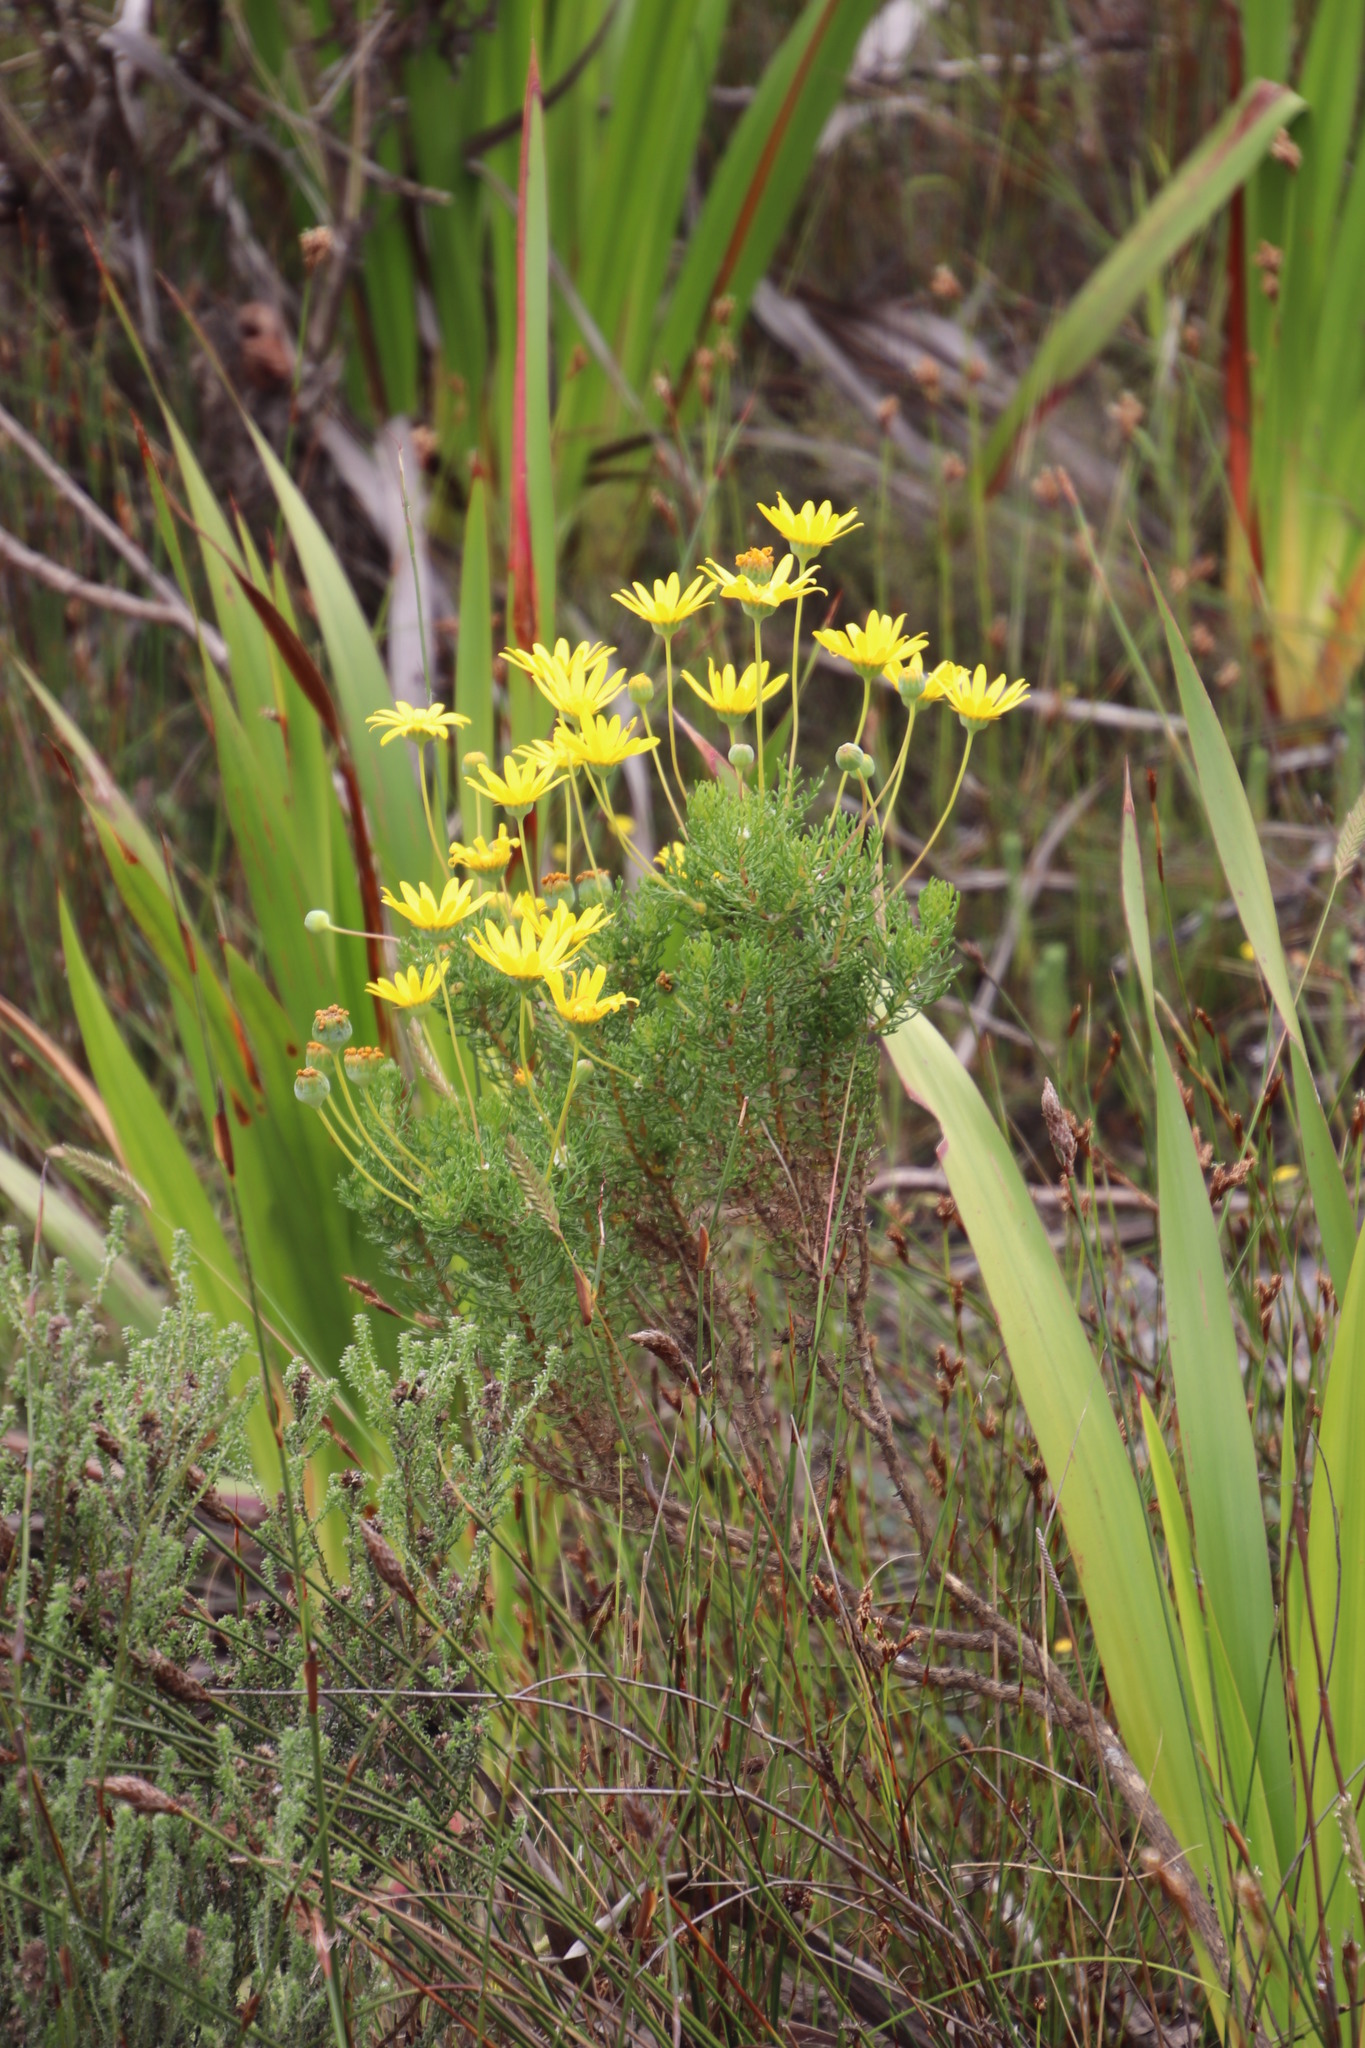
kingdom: Plantae
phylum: Tracheophyta
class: Magnoliopsida
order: Asterales
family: Asteraceae
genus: Euryops
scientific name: Euryops abrotanifolius
